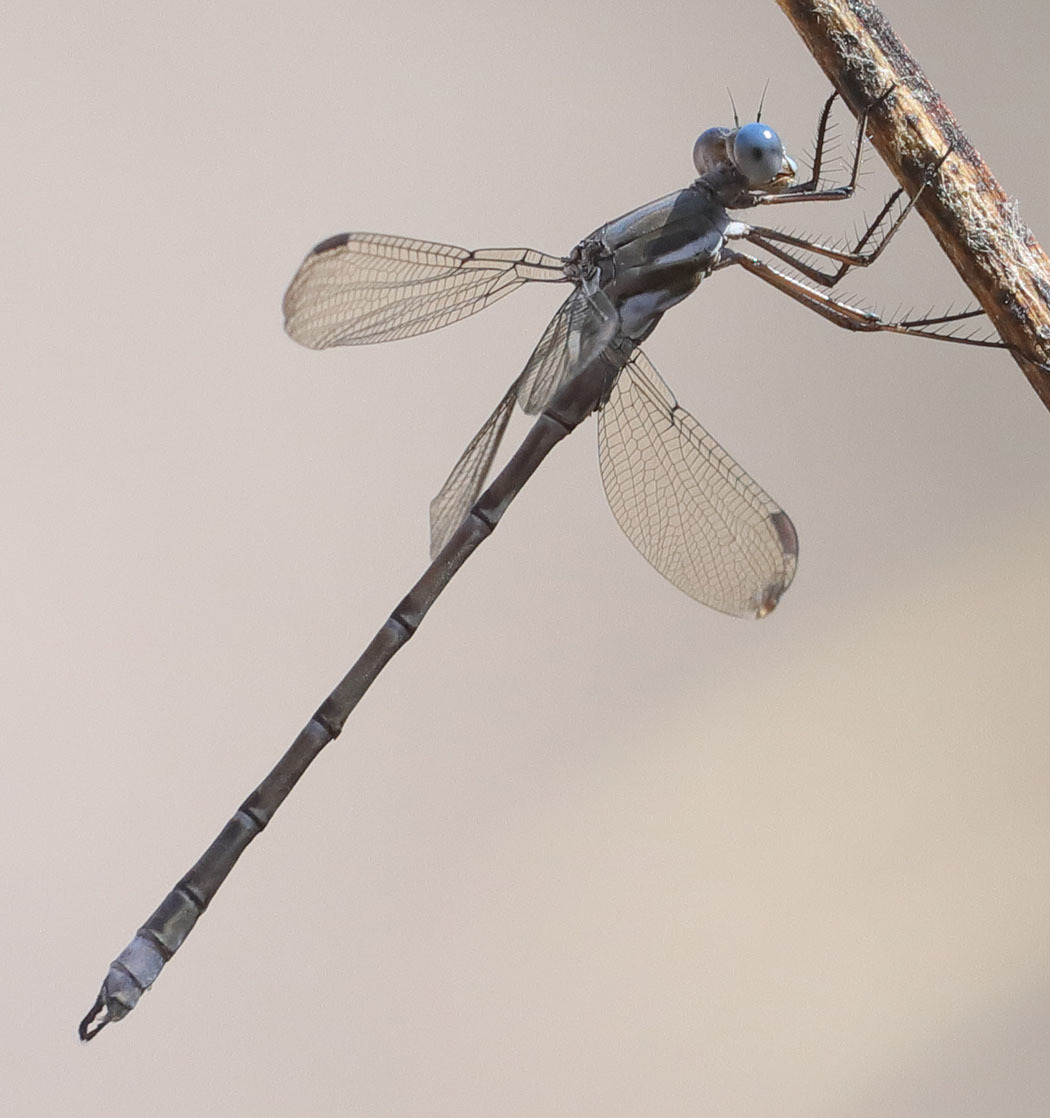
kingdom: Animalia
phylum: Arthropoda
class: Insecta
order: Odonata
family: Lestidae
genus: Archilestes
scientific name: Archilestes californicus
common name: California spreadwing
